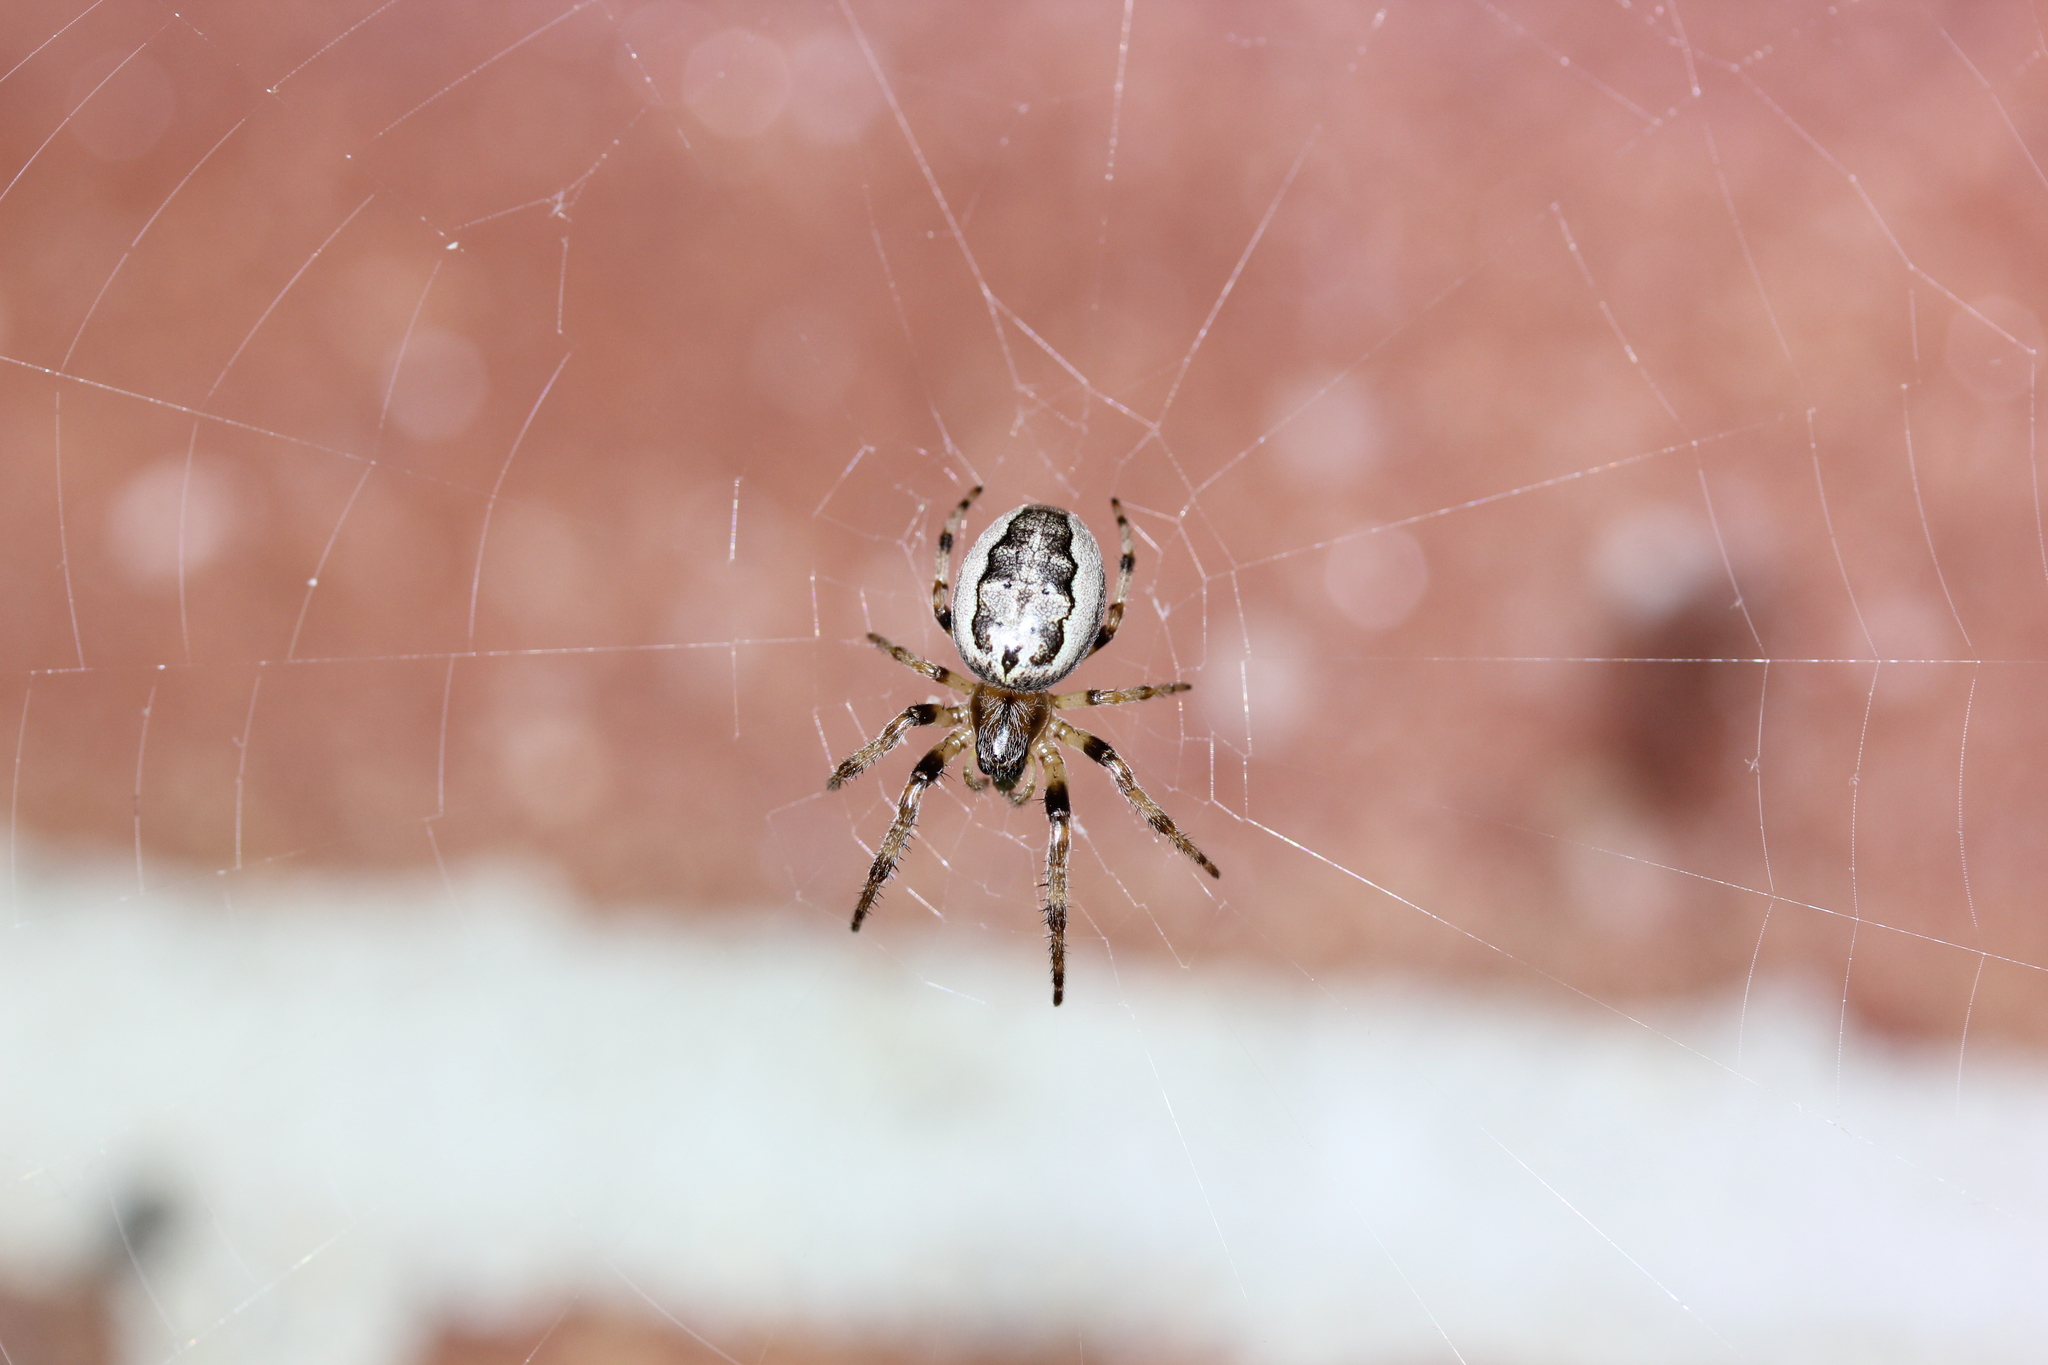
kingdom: Animalia
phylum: Arthropoda
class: Arachnida
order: Araneae
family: Araneidae
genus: Larinioides
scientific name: Larinioides cornutus
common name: Furrow orbweaver
